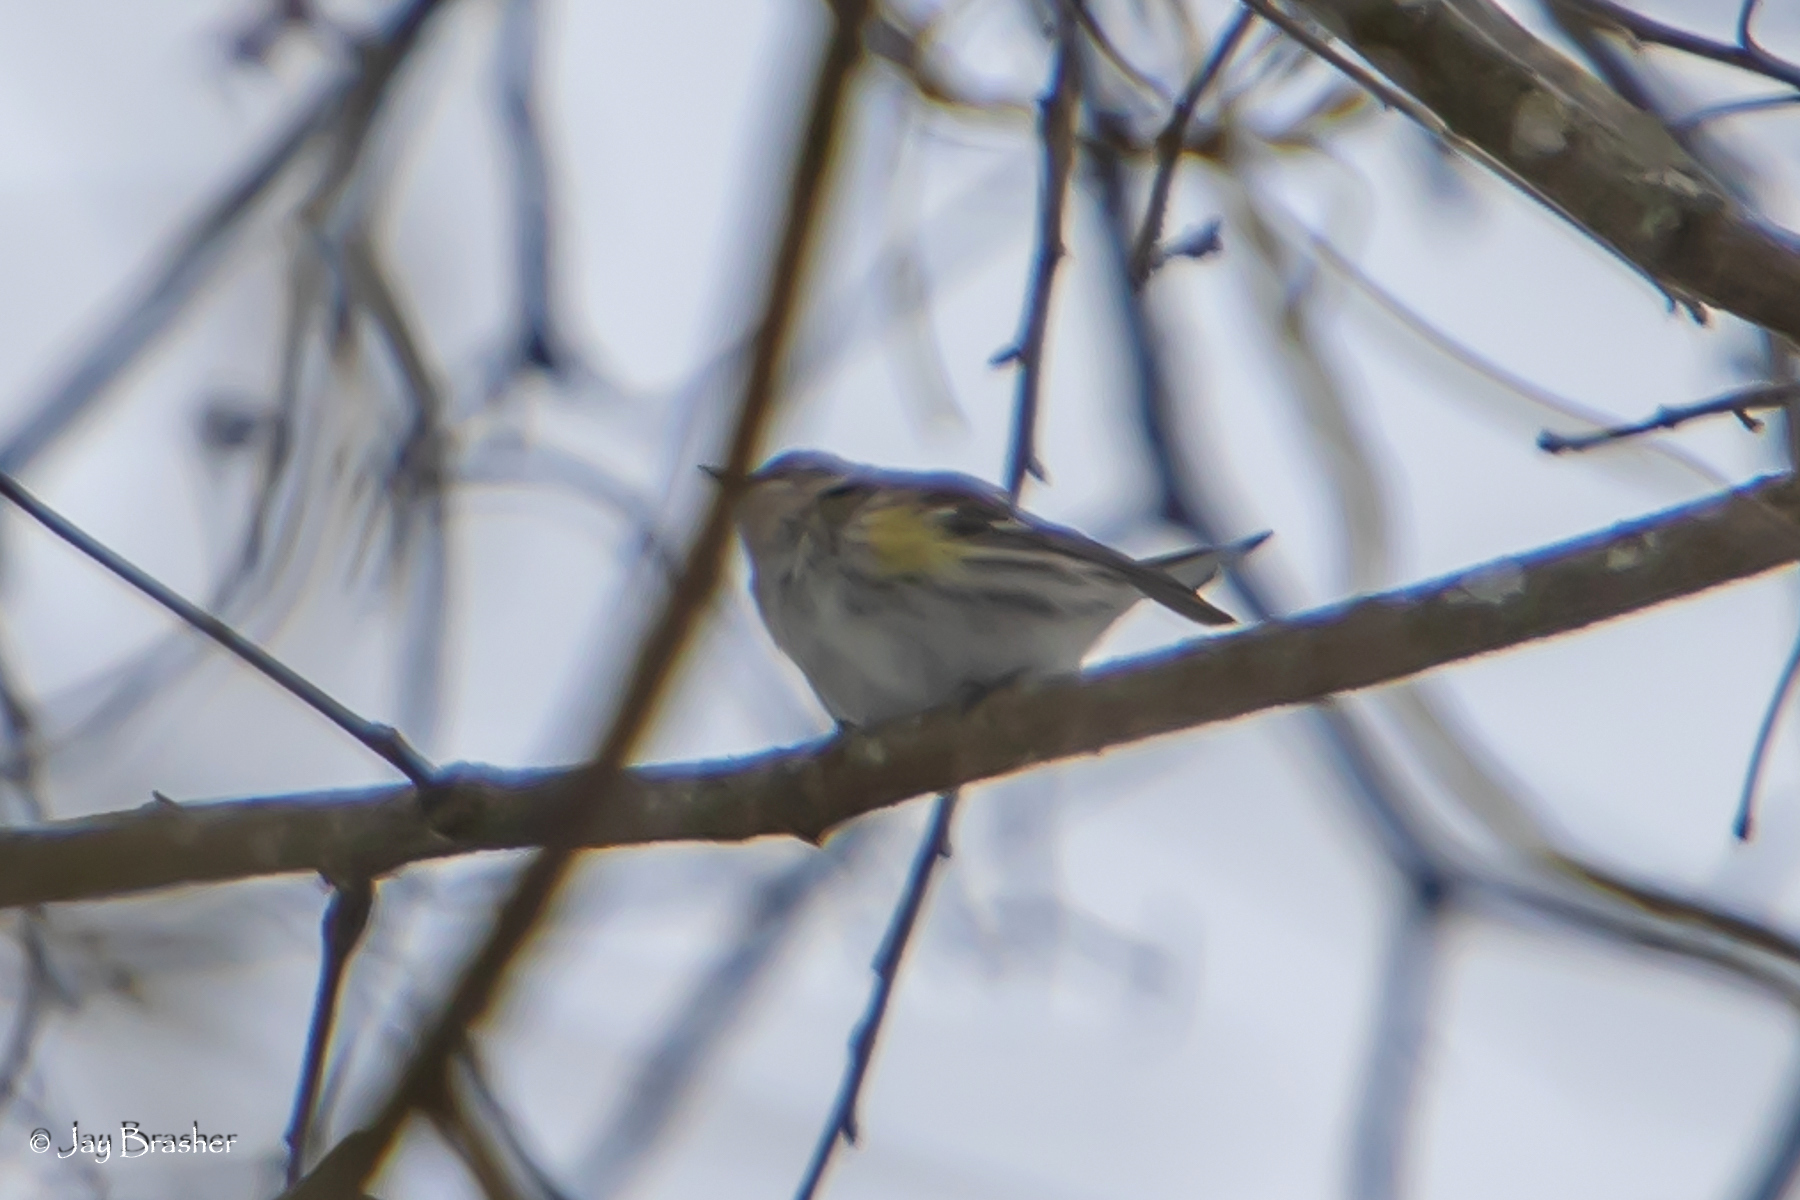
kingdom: Animalia
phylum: Chordata
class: Aves
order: Passeriformes
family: Parulidae
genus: Setophaga
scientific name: Setophaga coronata
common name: Myrtle warbler
